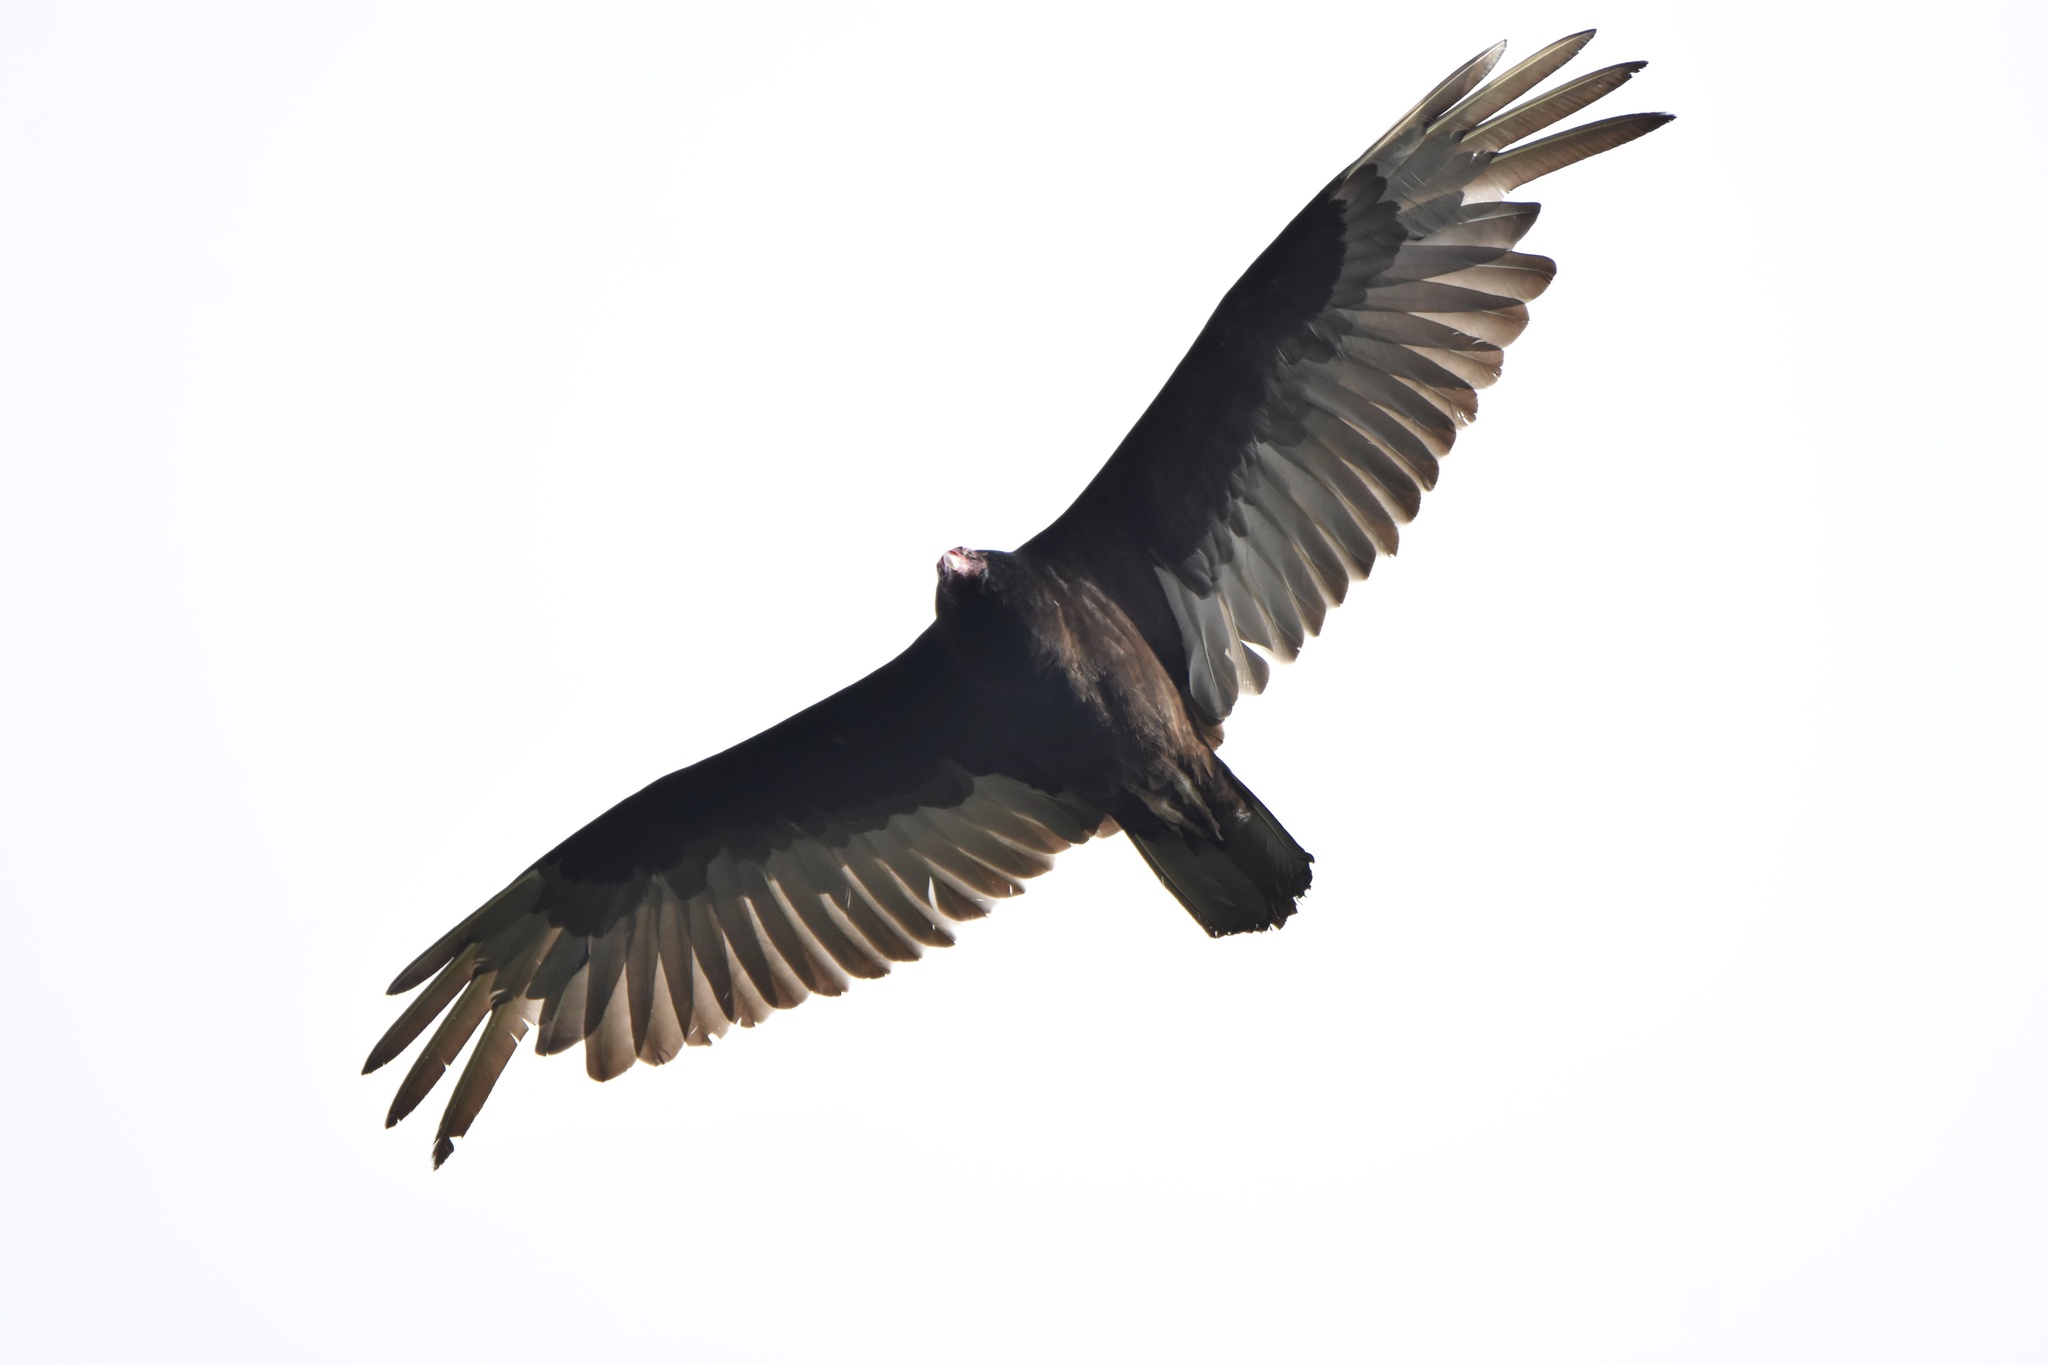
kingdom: Animalia
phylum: Chordata
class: Aves
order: Accipitriformes
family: Cathartidae
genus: Cathartes
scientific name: Cathartes aura
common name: Turkey vulture
